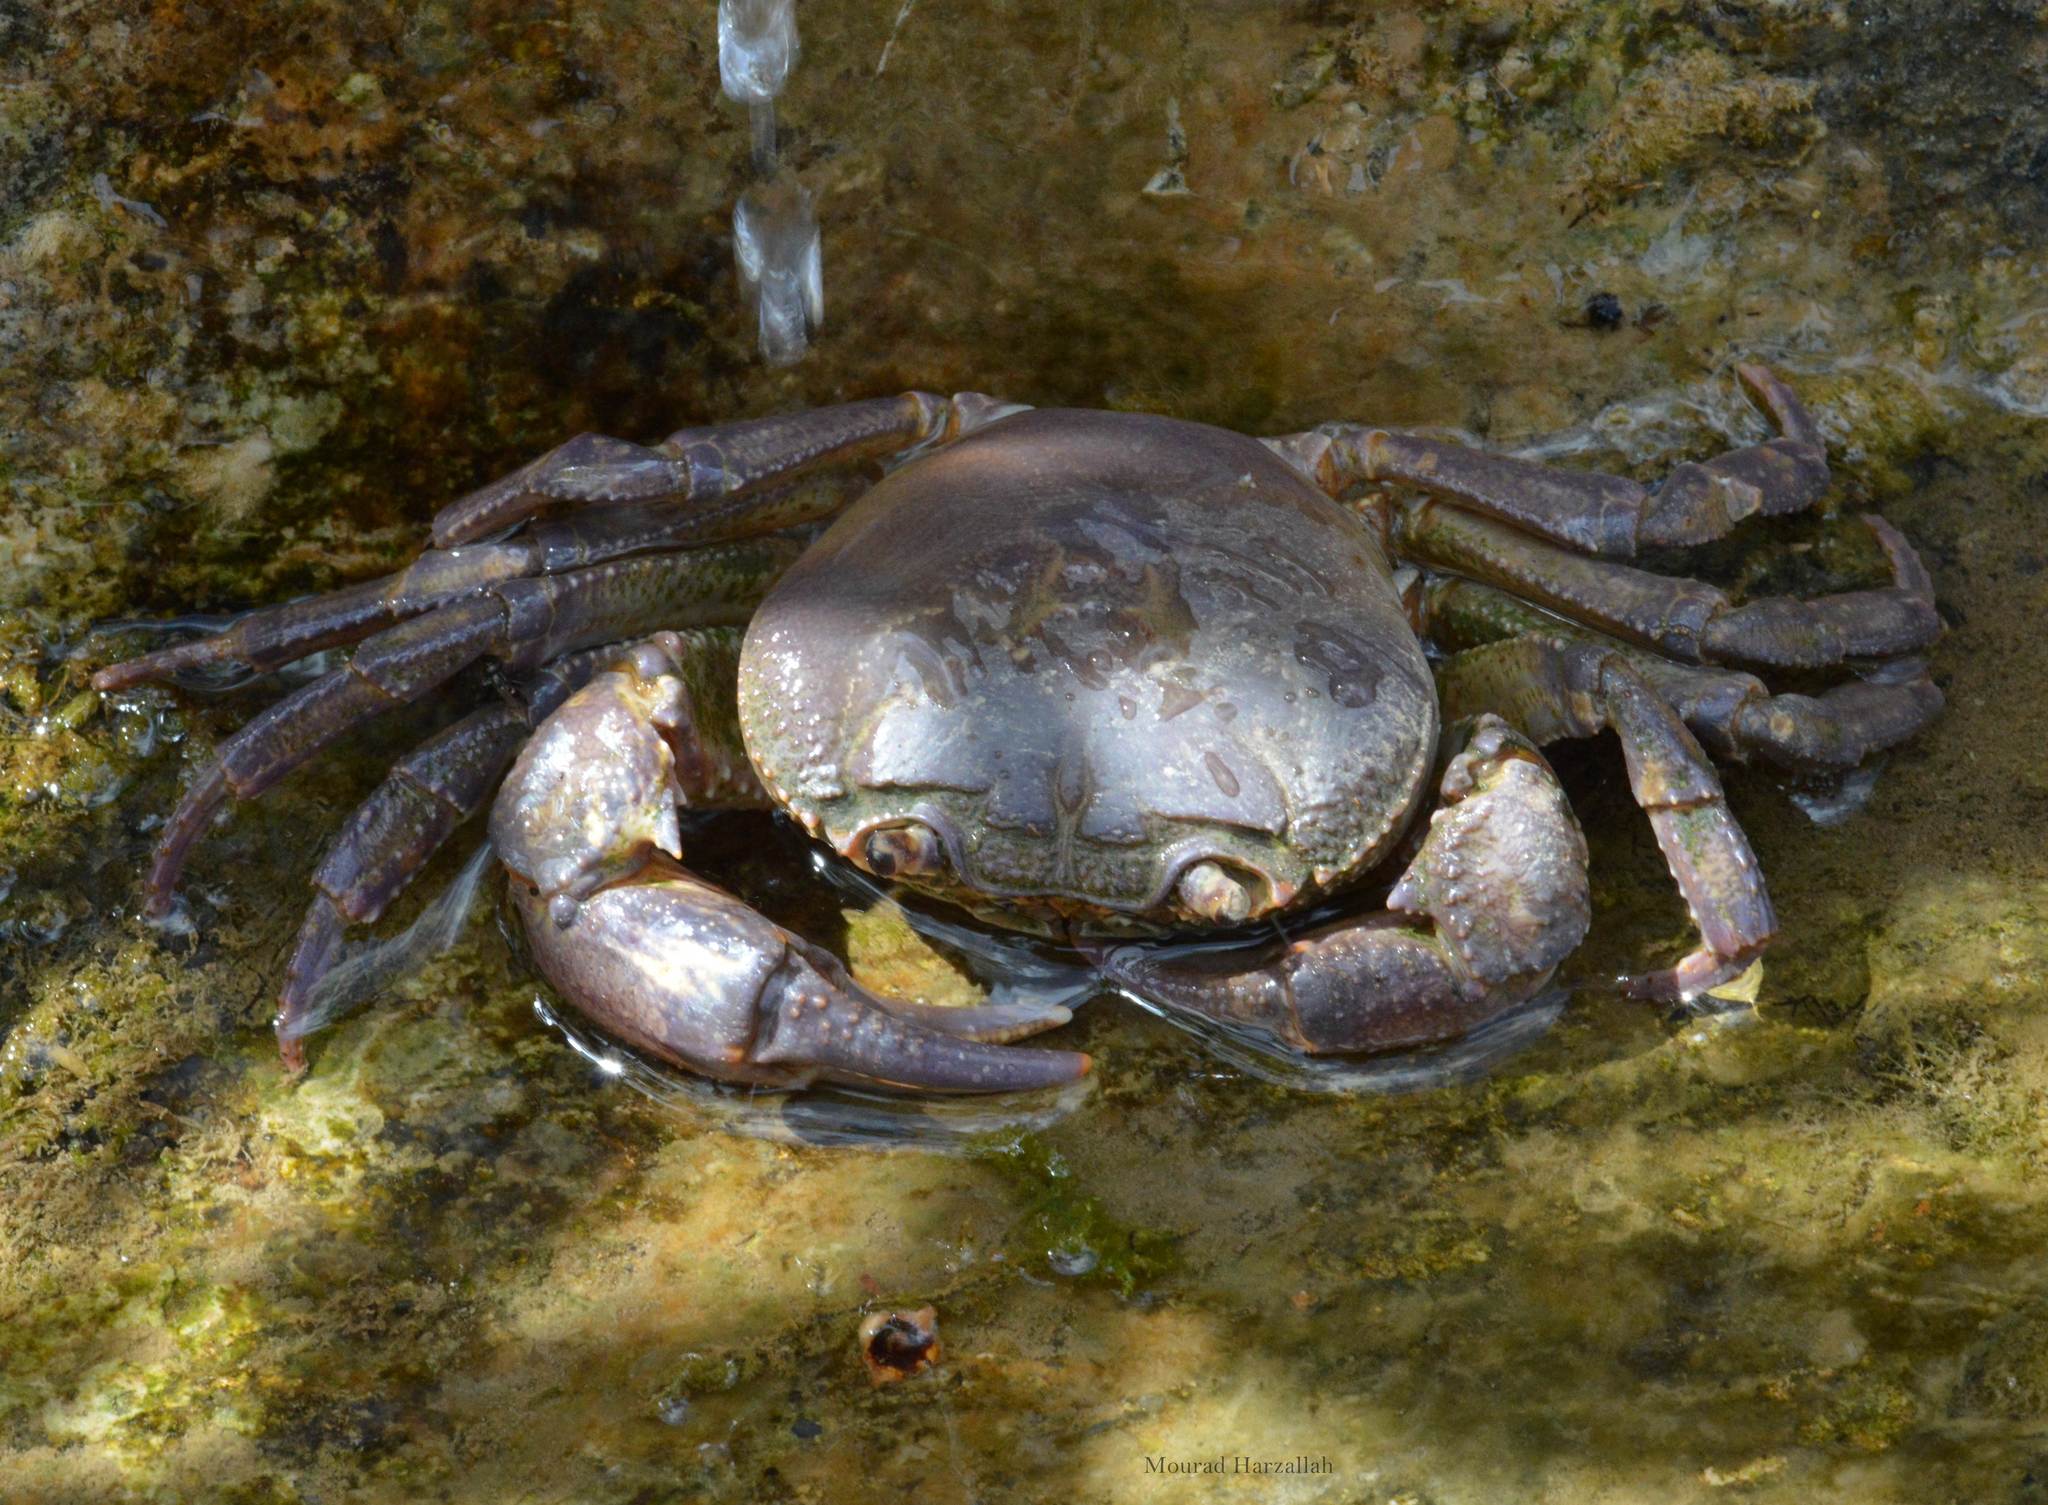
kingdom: Animalia
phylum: Arthropoda
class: Malacostraca
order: Decapoda
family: Potamidae
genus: Potamon
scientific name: Potamon algeriense
